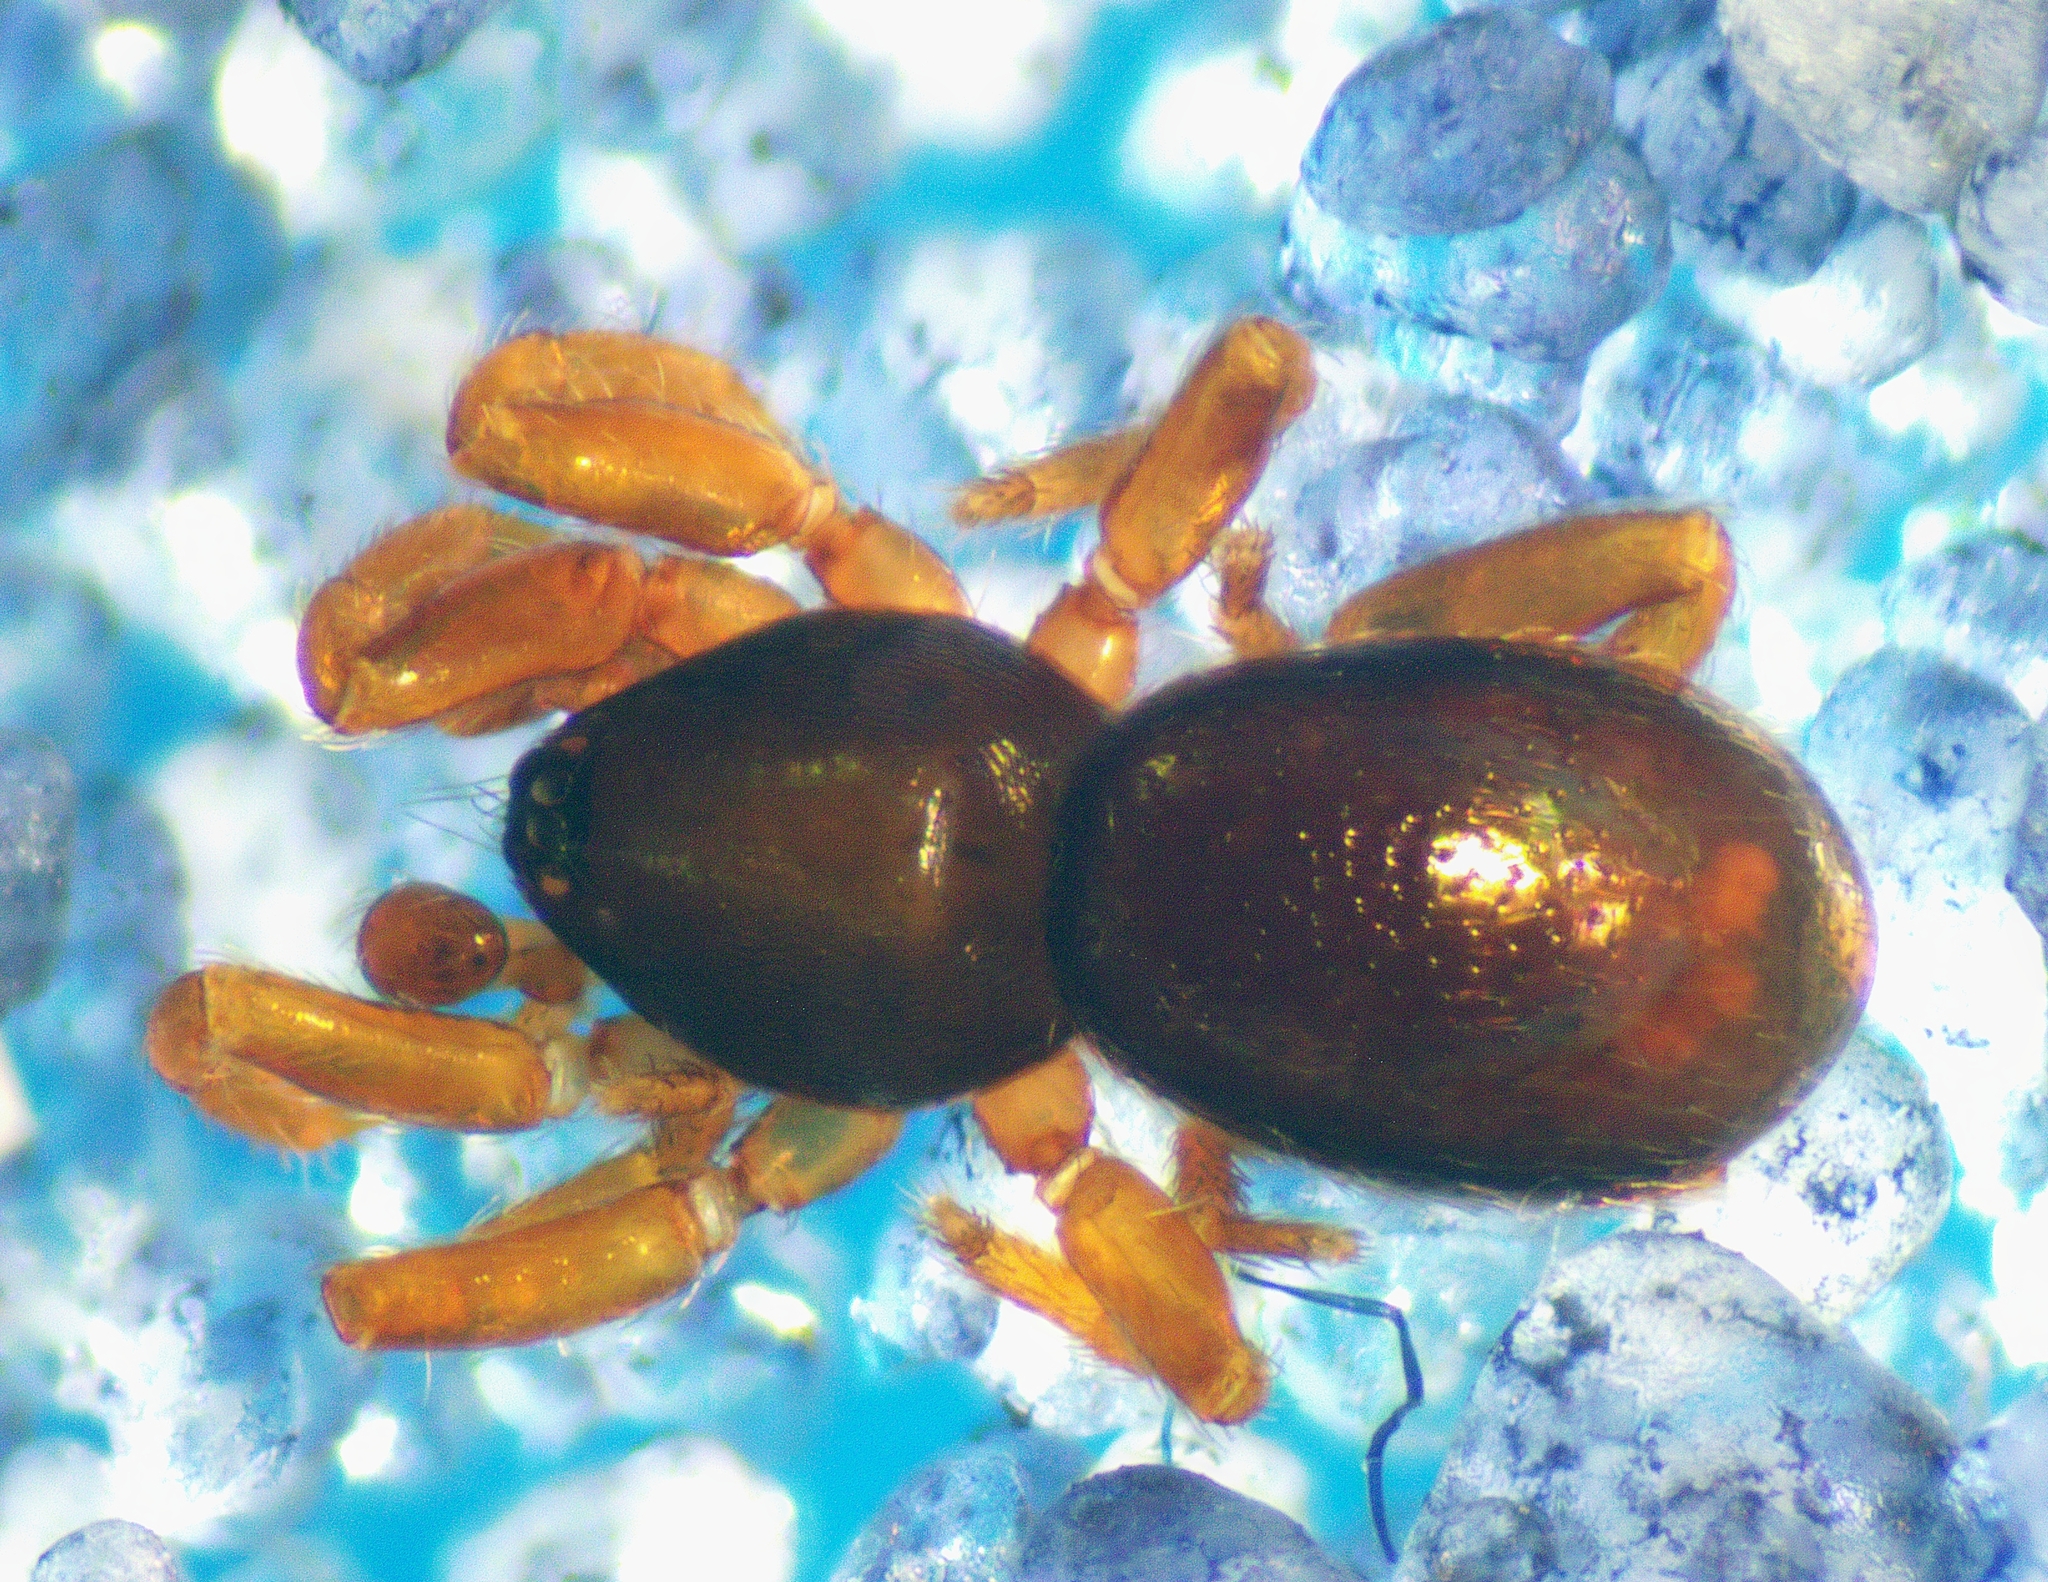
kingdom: Animalia
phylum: Arthropoda
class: Arachnida
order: Araneae
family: Oonopidae
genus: Opopaea
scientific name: Opopaea
